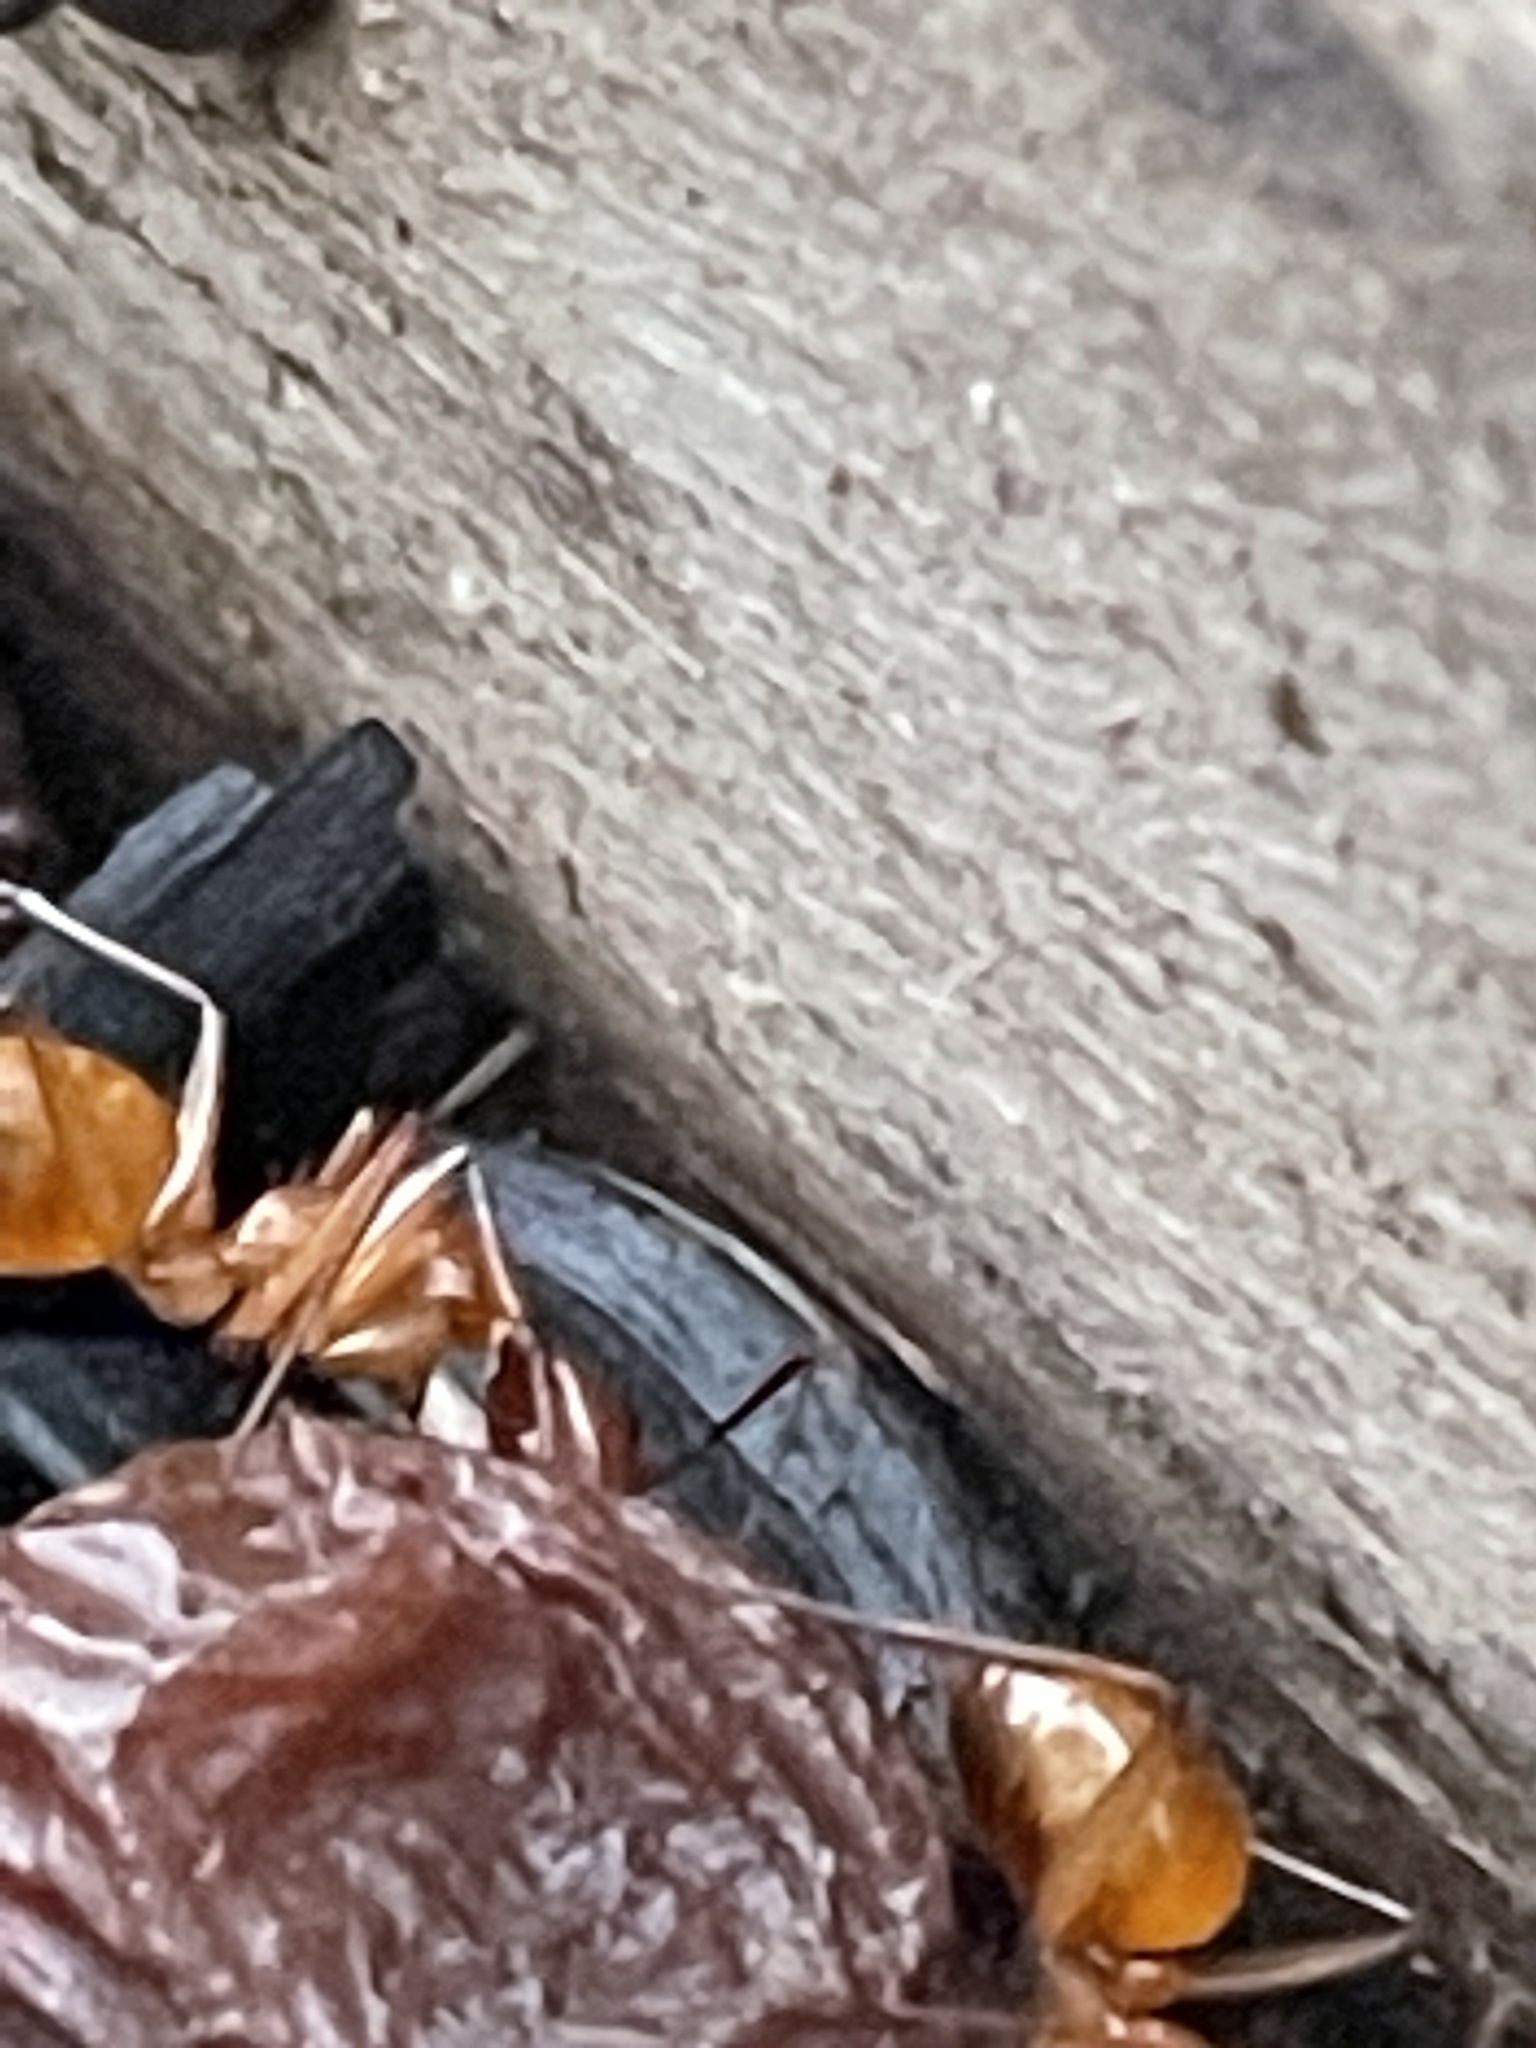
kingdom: Animalia
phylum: Arthropoda
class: Insecta
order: Hymenoptera
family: Formicidae
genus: Camponotus
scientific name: Camponotus castaneus
